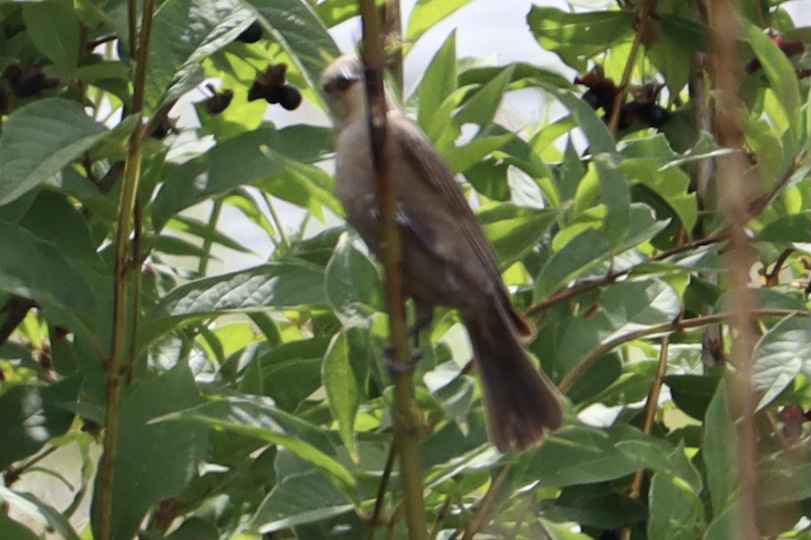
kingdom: Animalia
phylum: Chordata
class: Aves
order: Passeriformes
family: Icteridae
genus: Molothrus
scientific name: Molothrus ater
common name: Brown-headed cowbird
